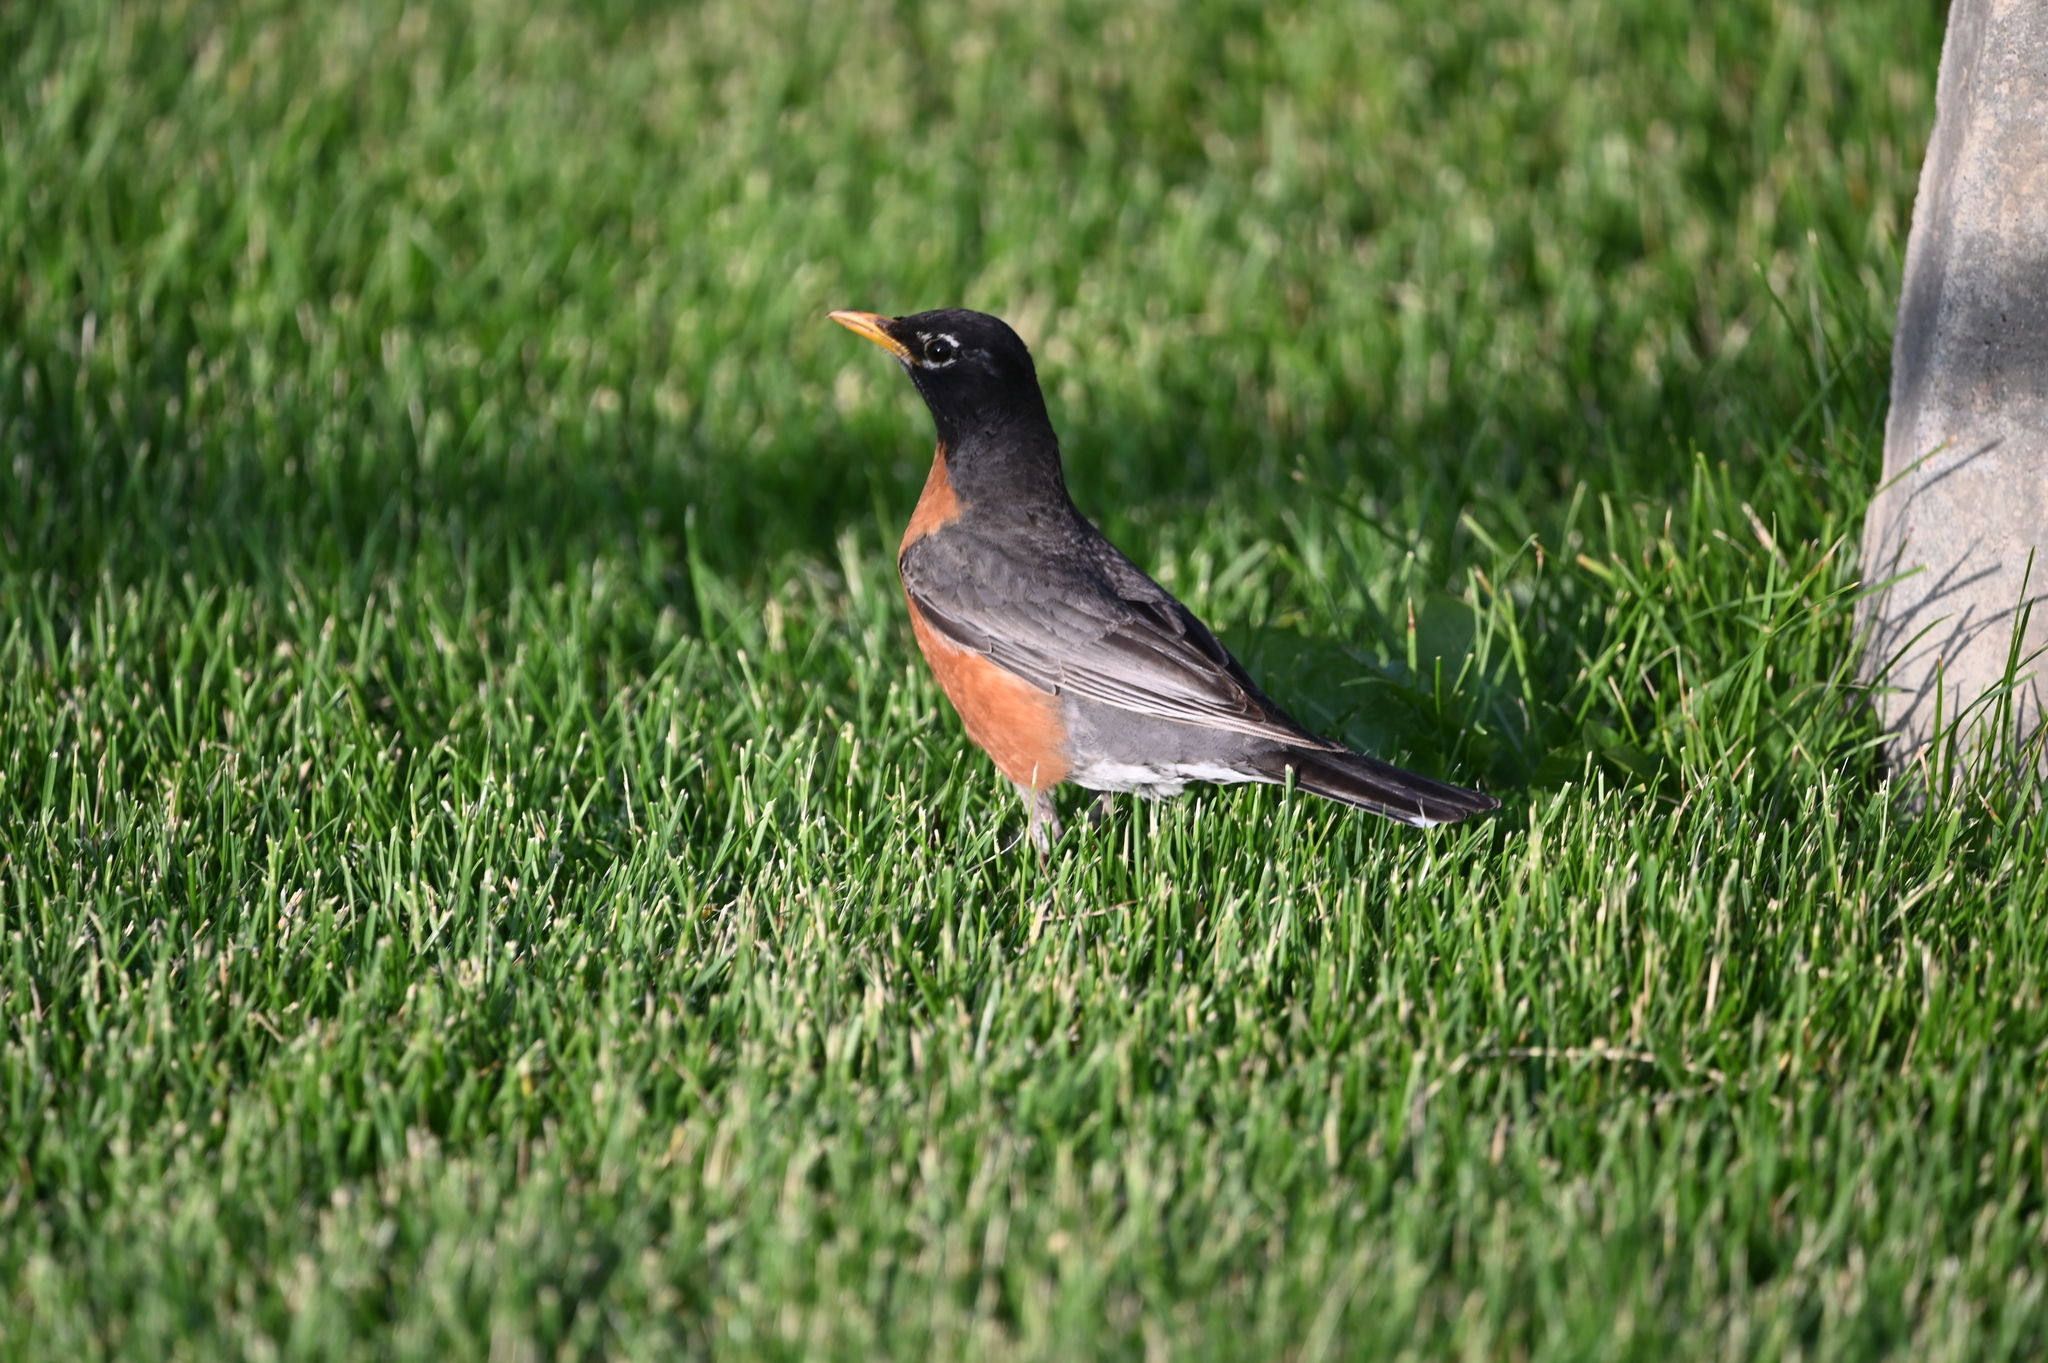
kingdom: Animalia
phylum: Chordata
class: Aves
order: Passeriformes
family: Turdidae
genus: Turdus
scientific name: Turdus migratorius
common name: American robin
